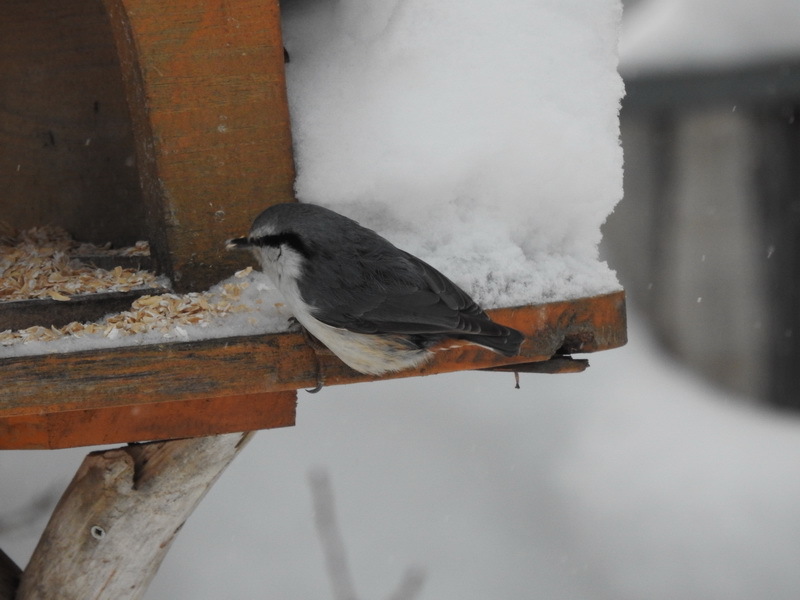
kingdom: Animalia
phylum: Chordata
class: Aves
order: Passeriformes
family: Sittidae
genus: Sitta
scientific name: Sitta europaea
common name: Eurasian nuthatch
